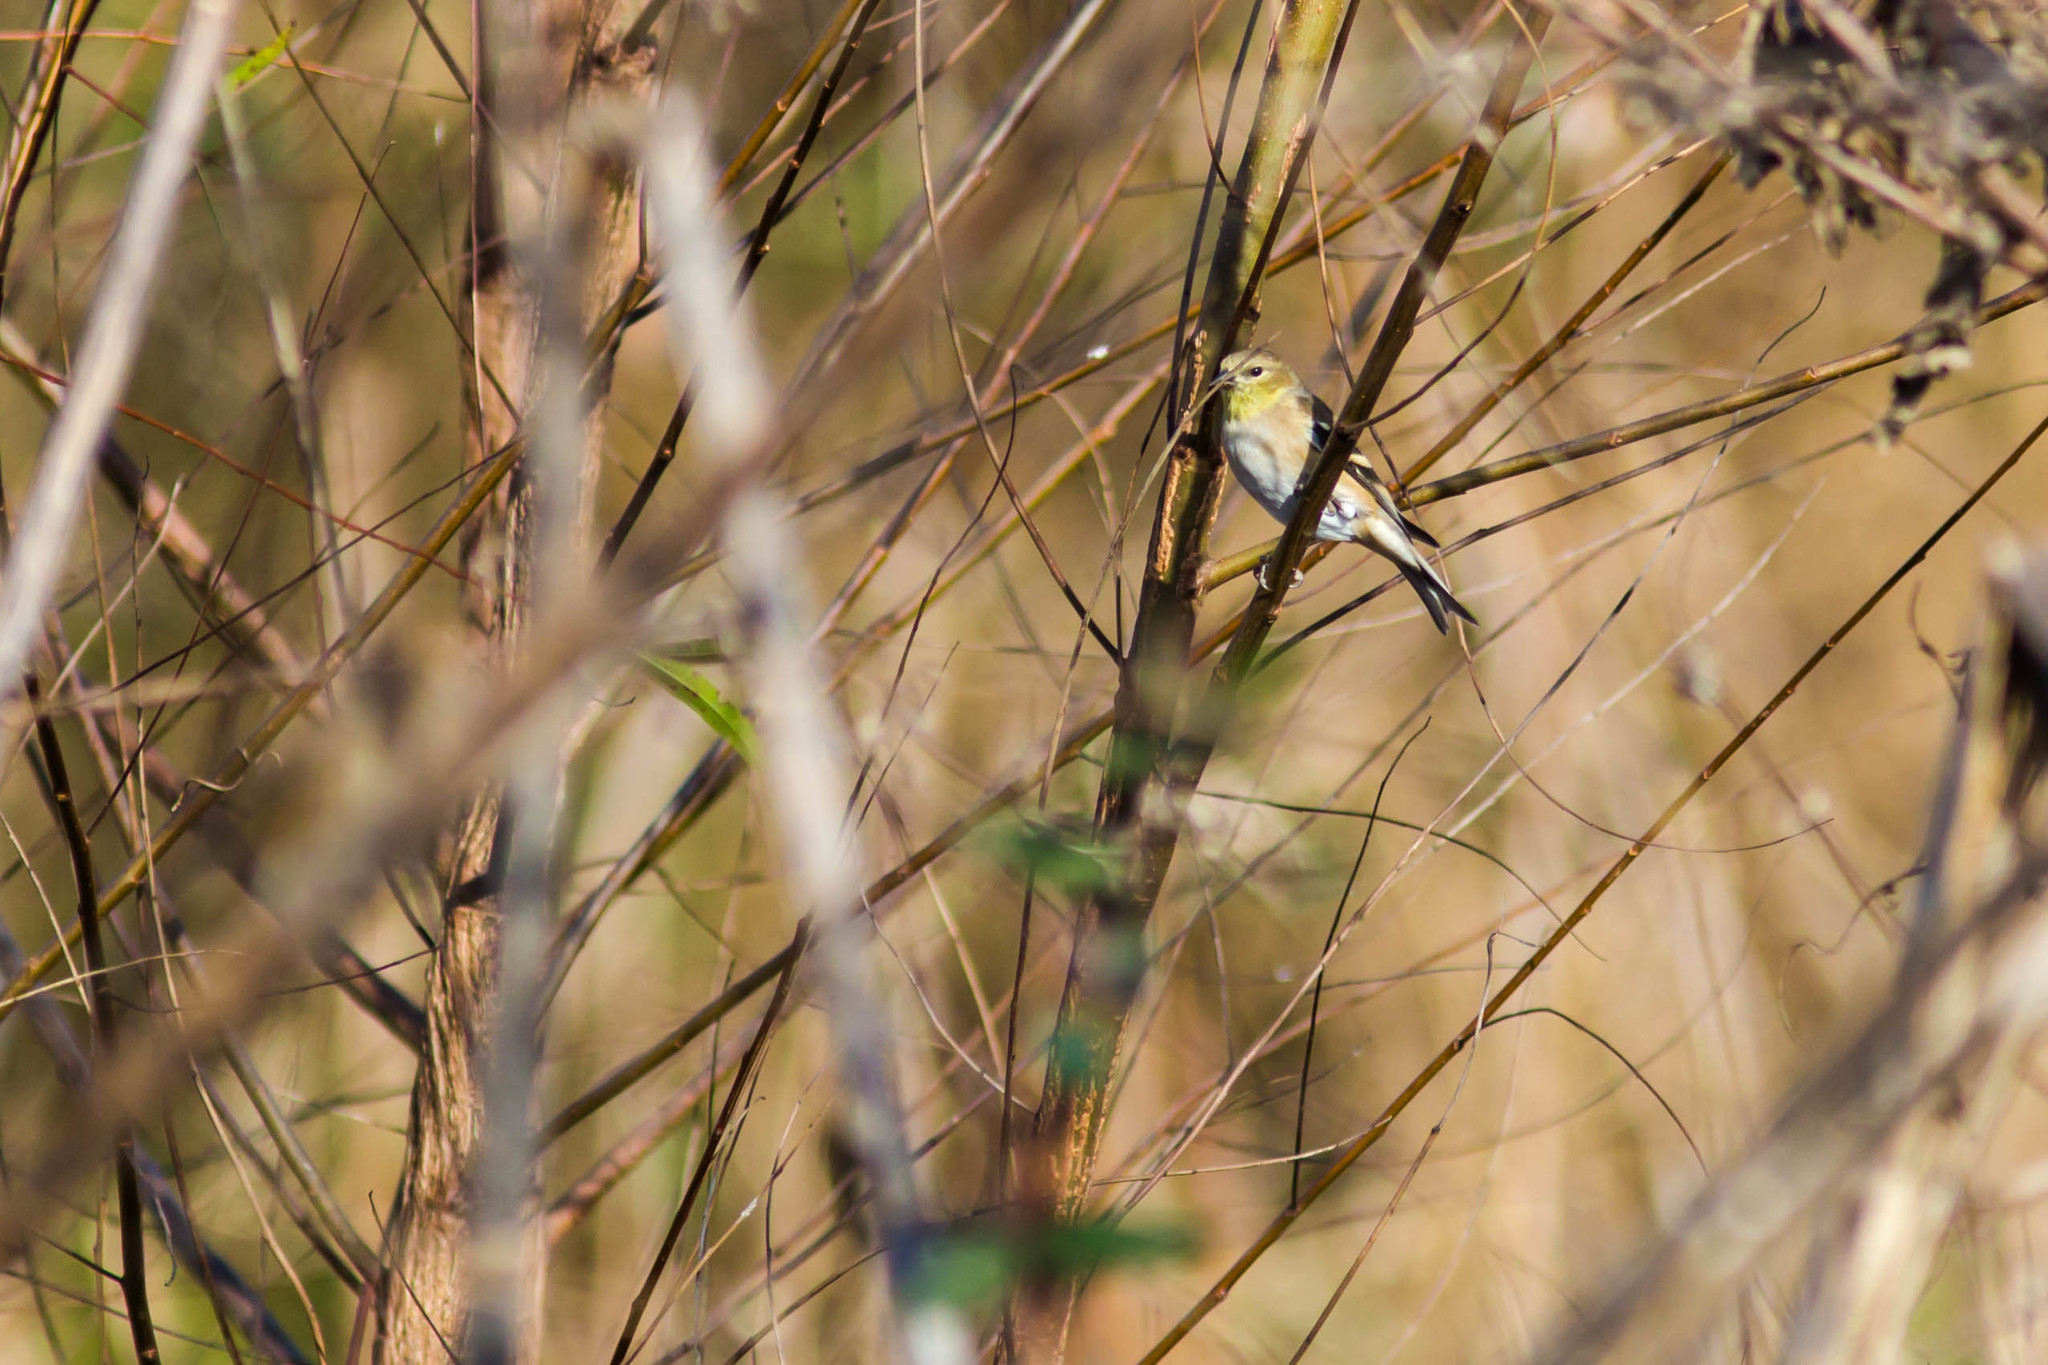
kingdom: Animalia
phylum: Chordata
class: Aves
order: Passeriformes
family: Fringillidae
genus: Spinus
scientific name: Spinus tristis
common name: American goldfinch
